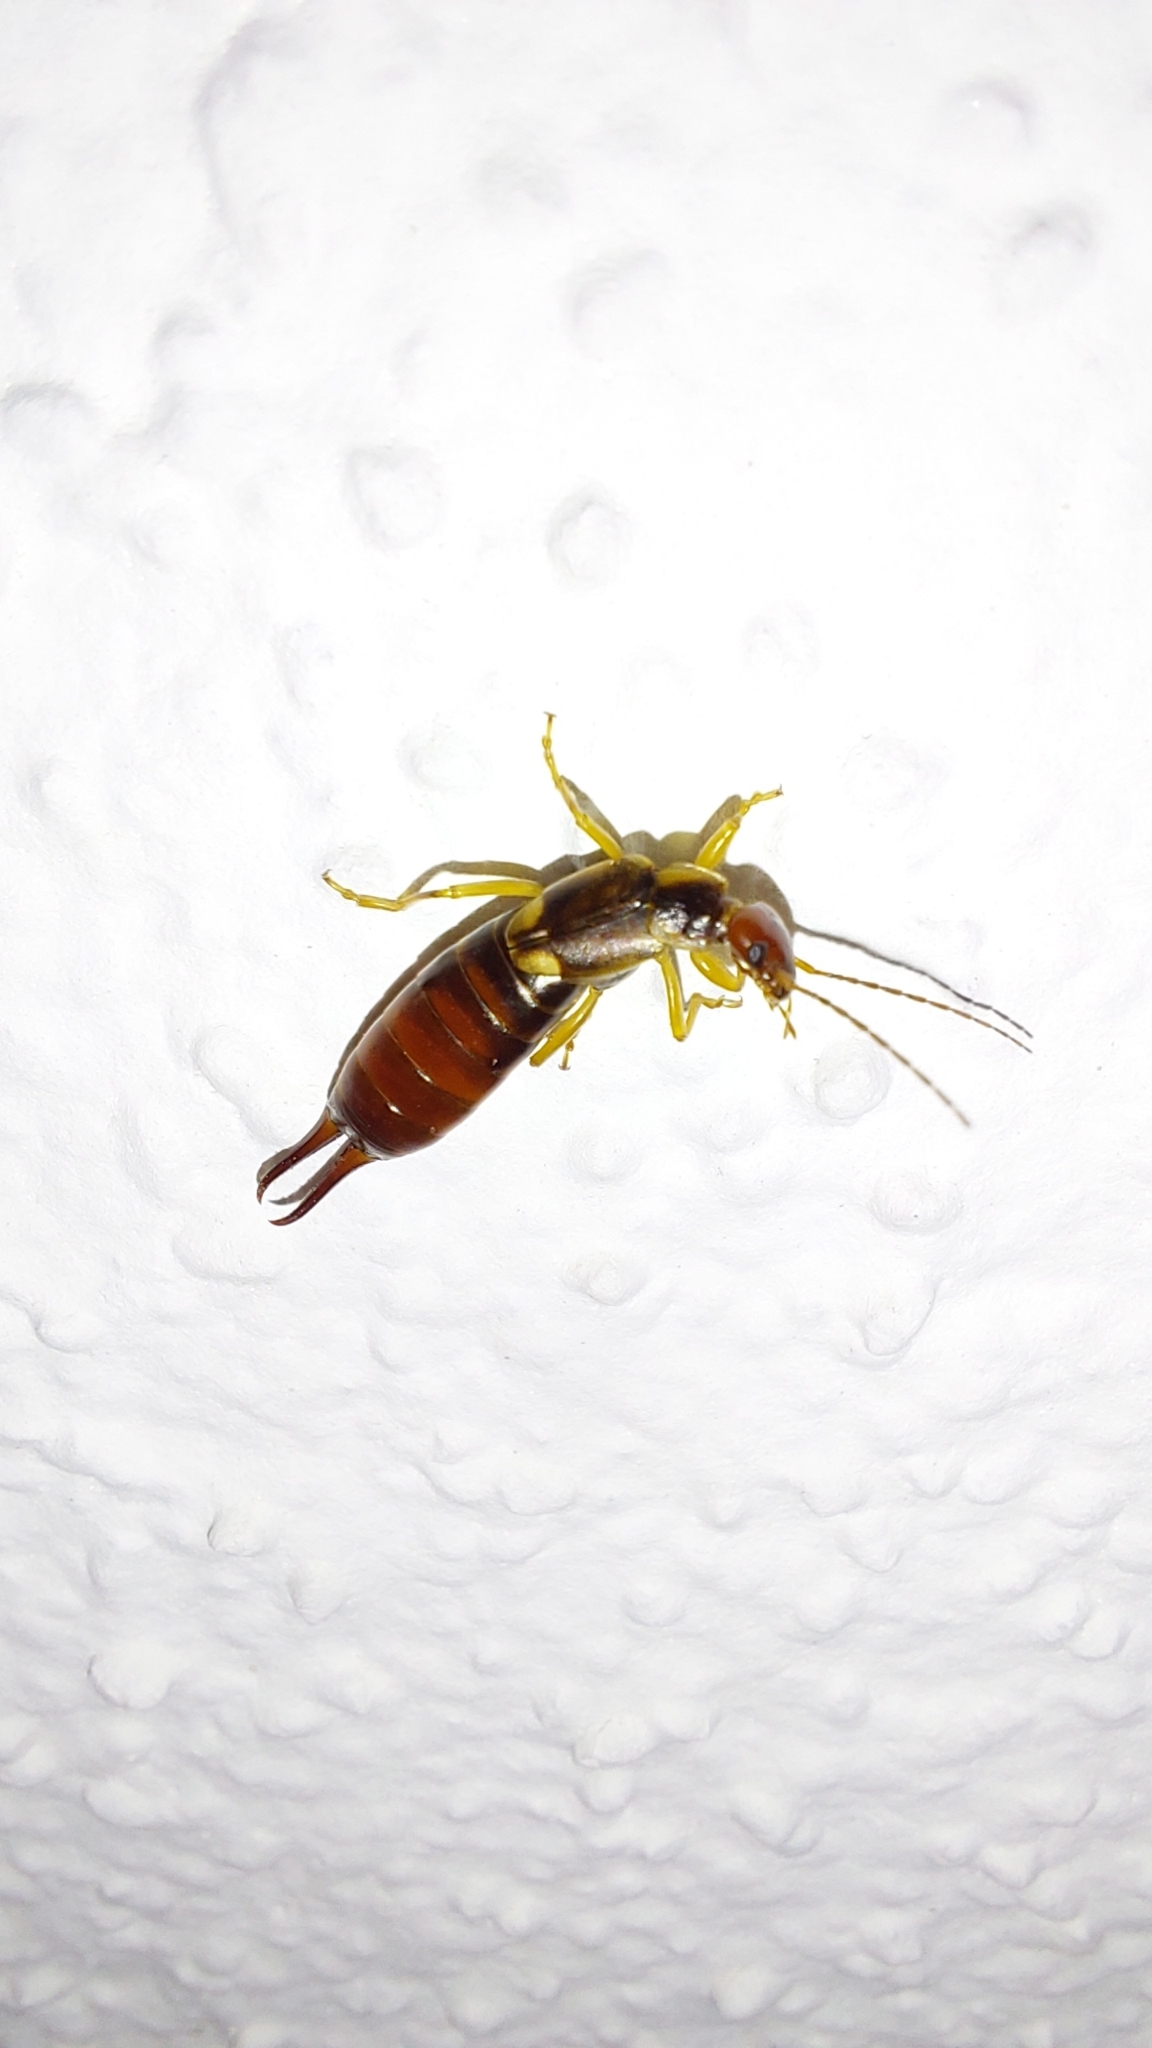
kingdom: Animalia
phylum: Arthropoda
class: Insecta
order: Dermaptera
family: Forficulidae
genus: Forficula
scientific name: Forficula
